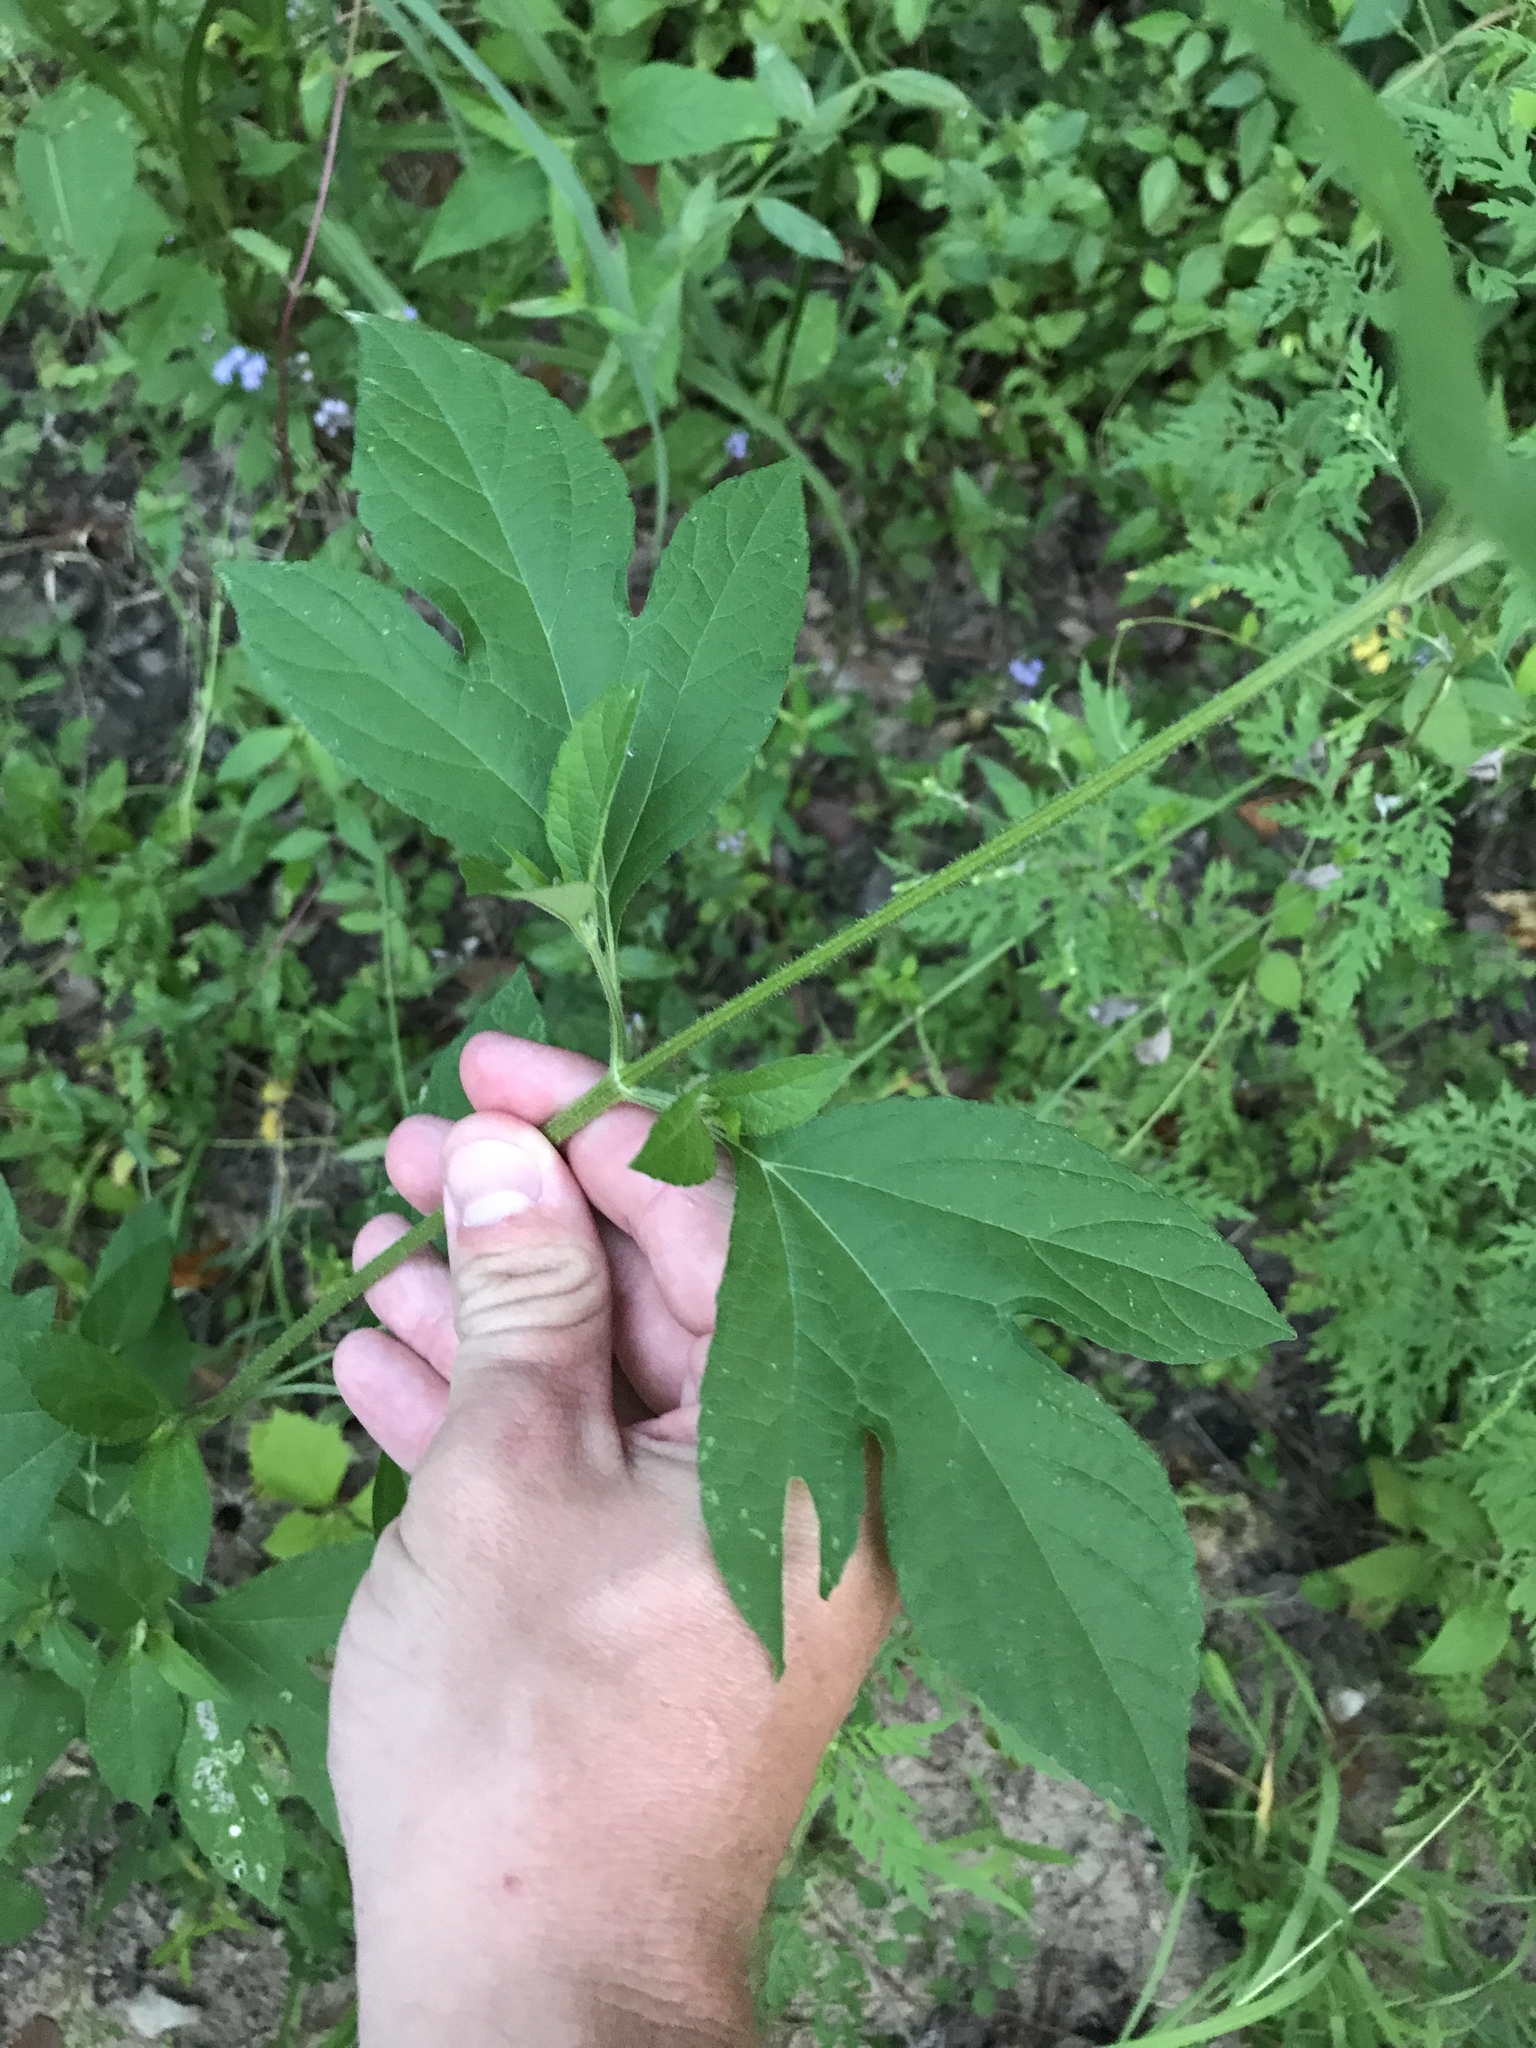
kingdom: Plantae
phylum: Tracheophyta
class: Magnoliopsida
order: Asterales
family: Asteraceae
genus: Ambrosia
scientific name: Ambrosia trifida
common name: Giant ragweed
